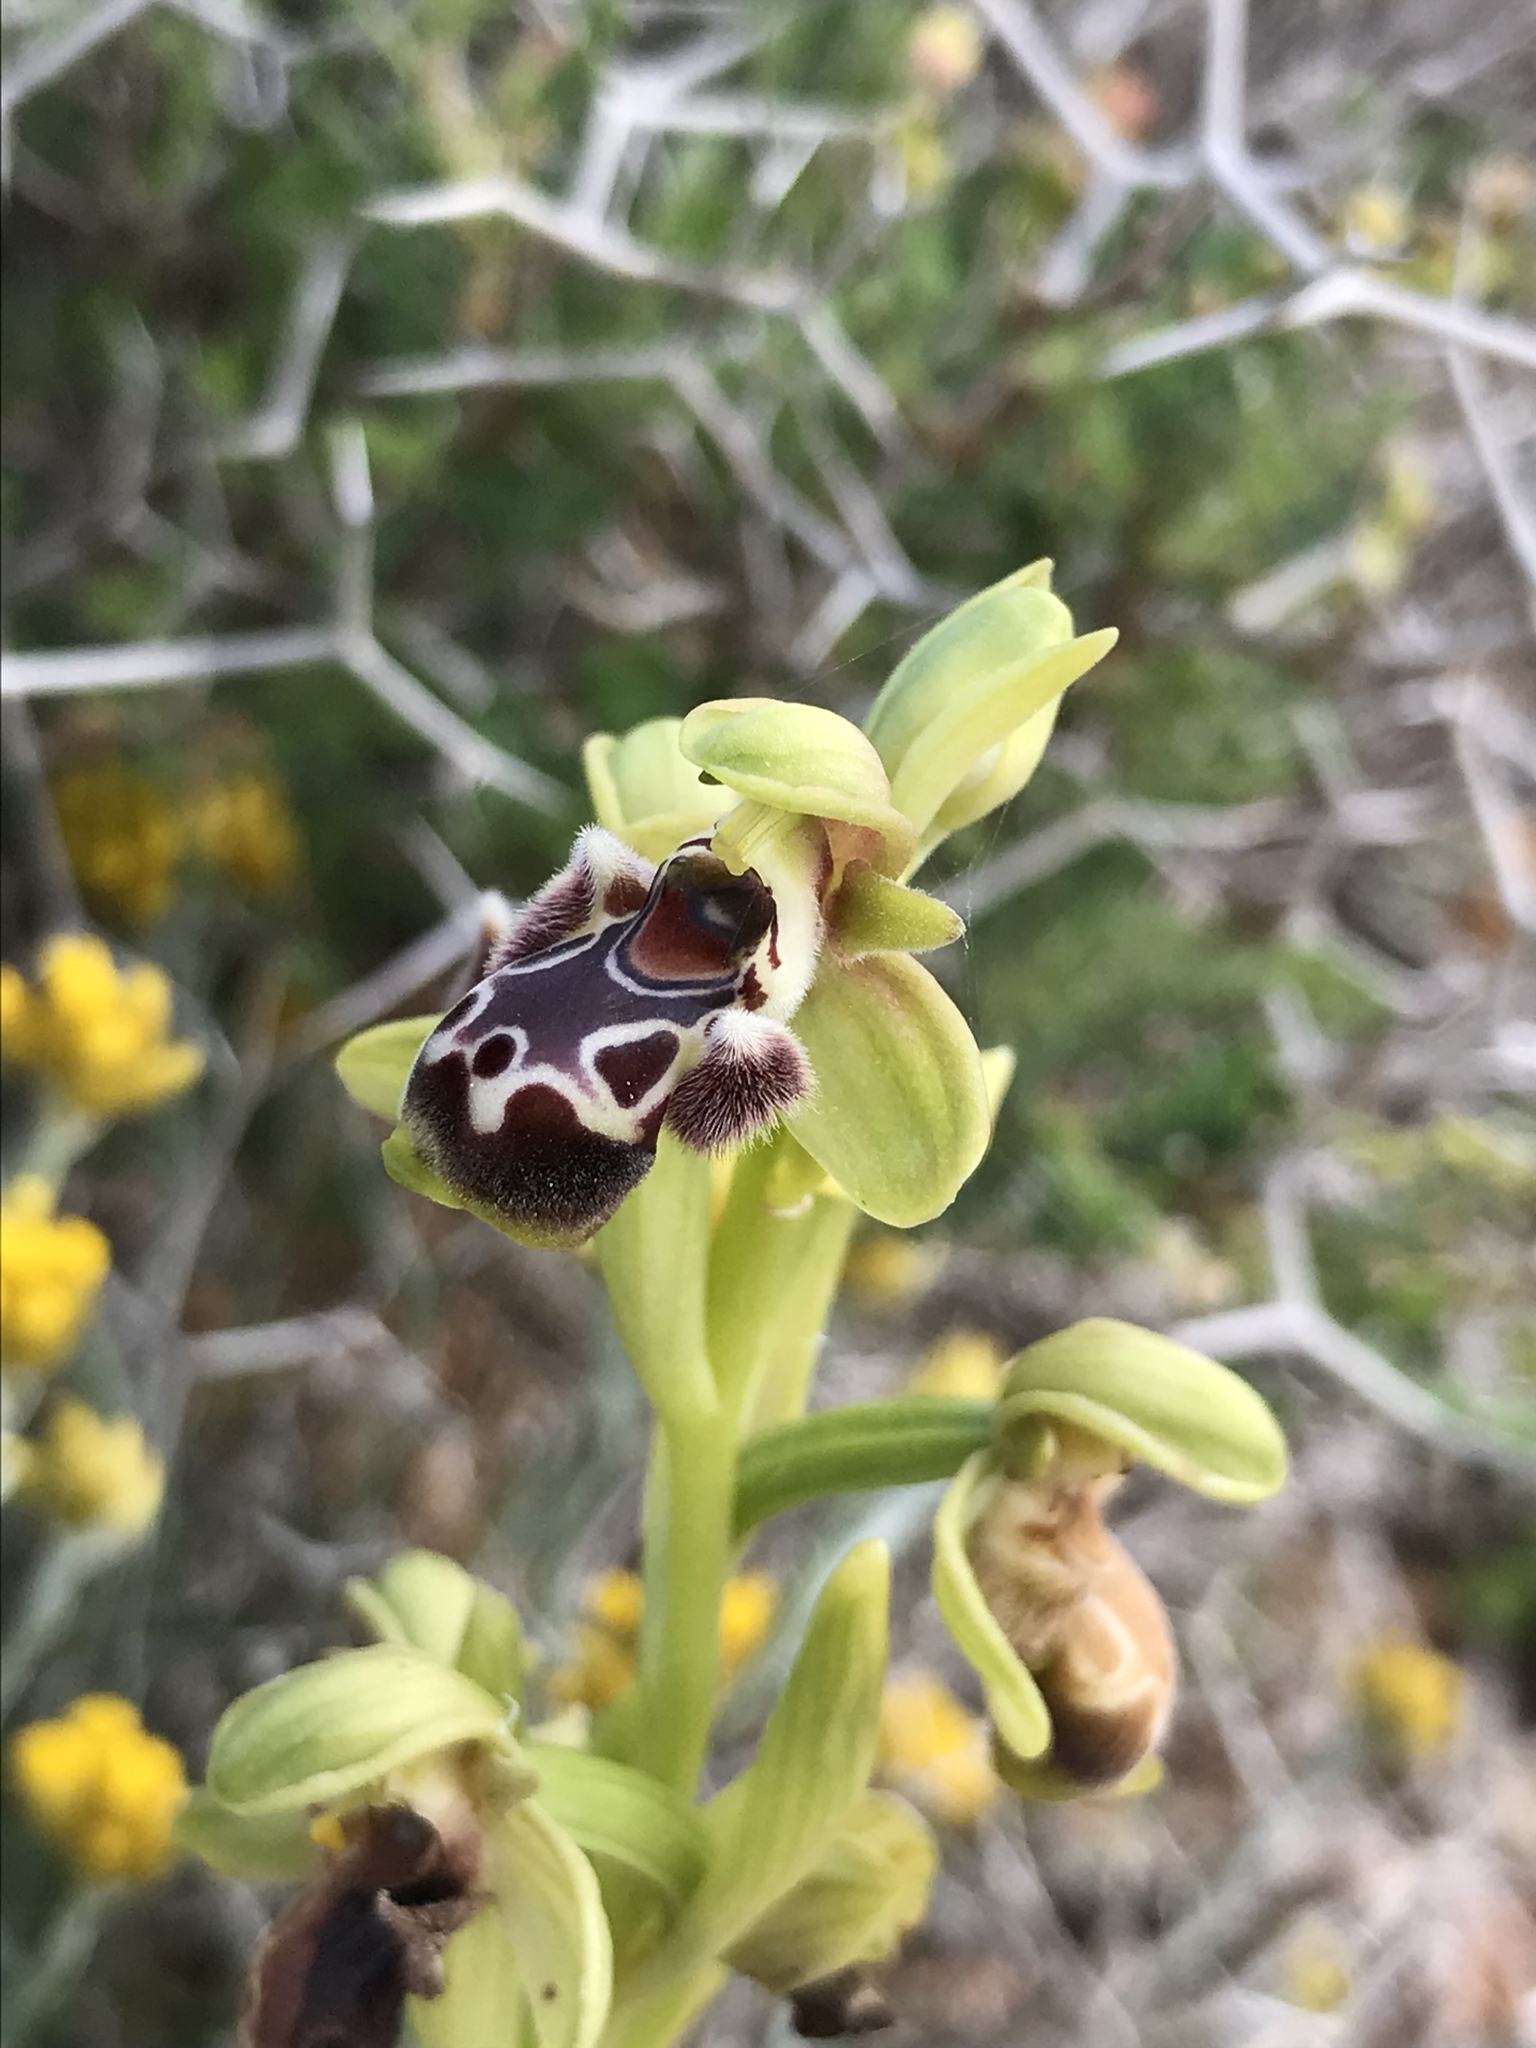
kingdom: Plantae
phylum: Tracheophyta
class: Liliopsida
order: Asparagales
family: Orchidaceae
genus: Ophrys
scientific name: Ophrys umbilicata
